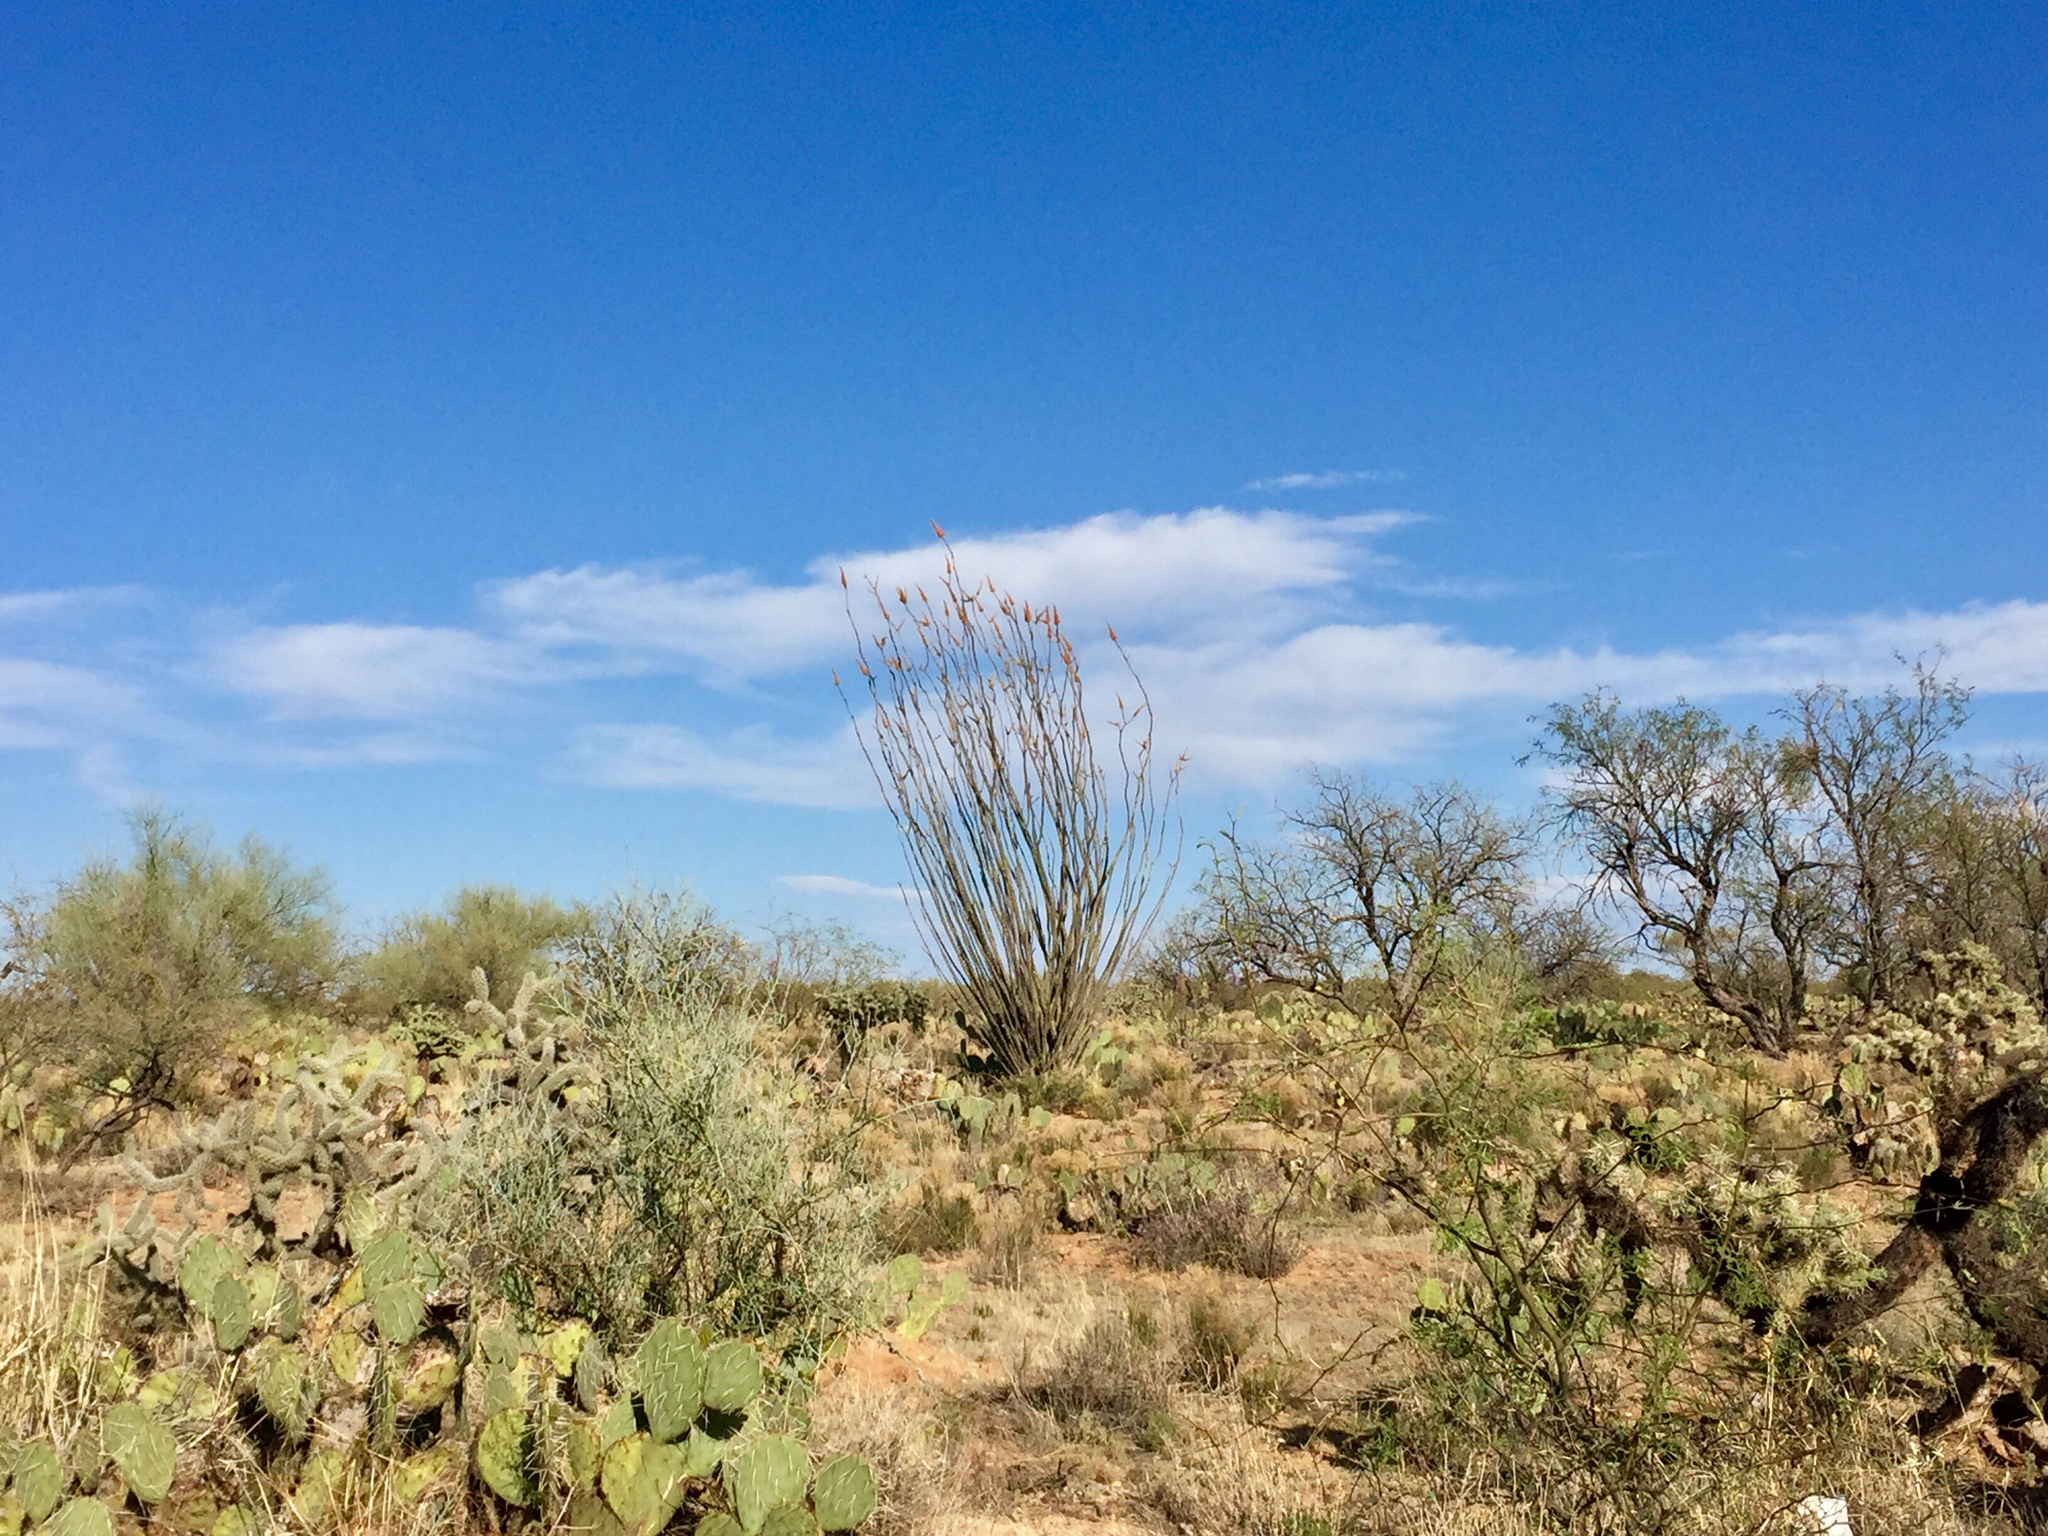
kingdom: Plantae
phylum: Tracheophyta
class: Magnoliopsida
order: Ericales
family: Fouquieriaceae
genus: Fouquieria
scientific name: Fouquieria splendens
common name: Vine-cactus
